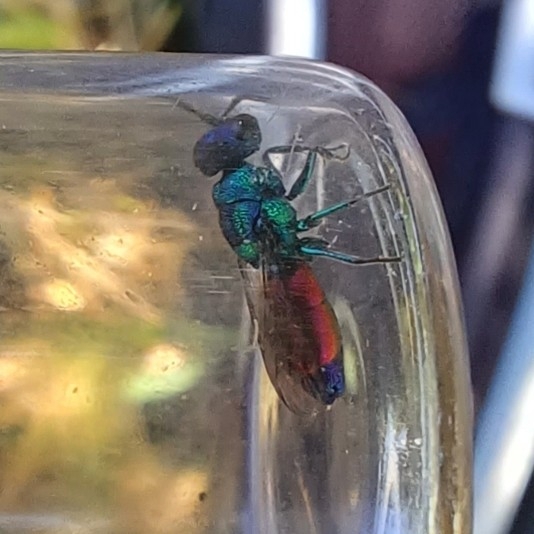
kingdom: Animalia
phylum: Arthropoda
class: Insecta
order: Hymenoptera
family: Chrysididae
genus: Chrysis
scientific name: Chrysis
